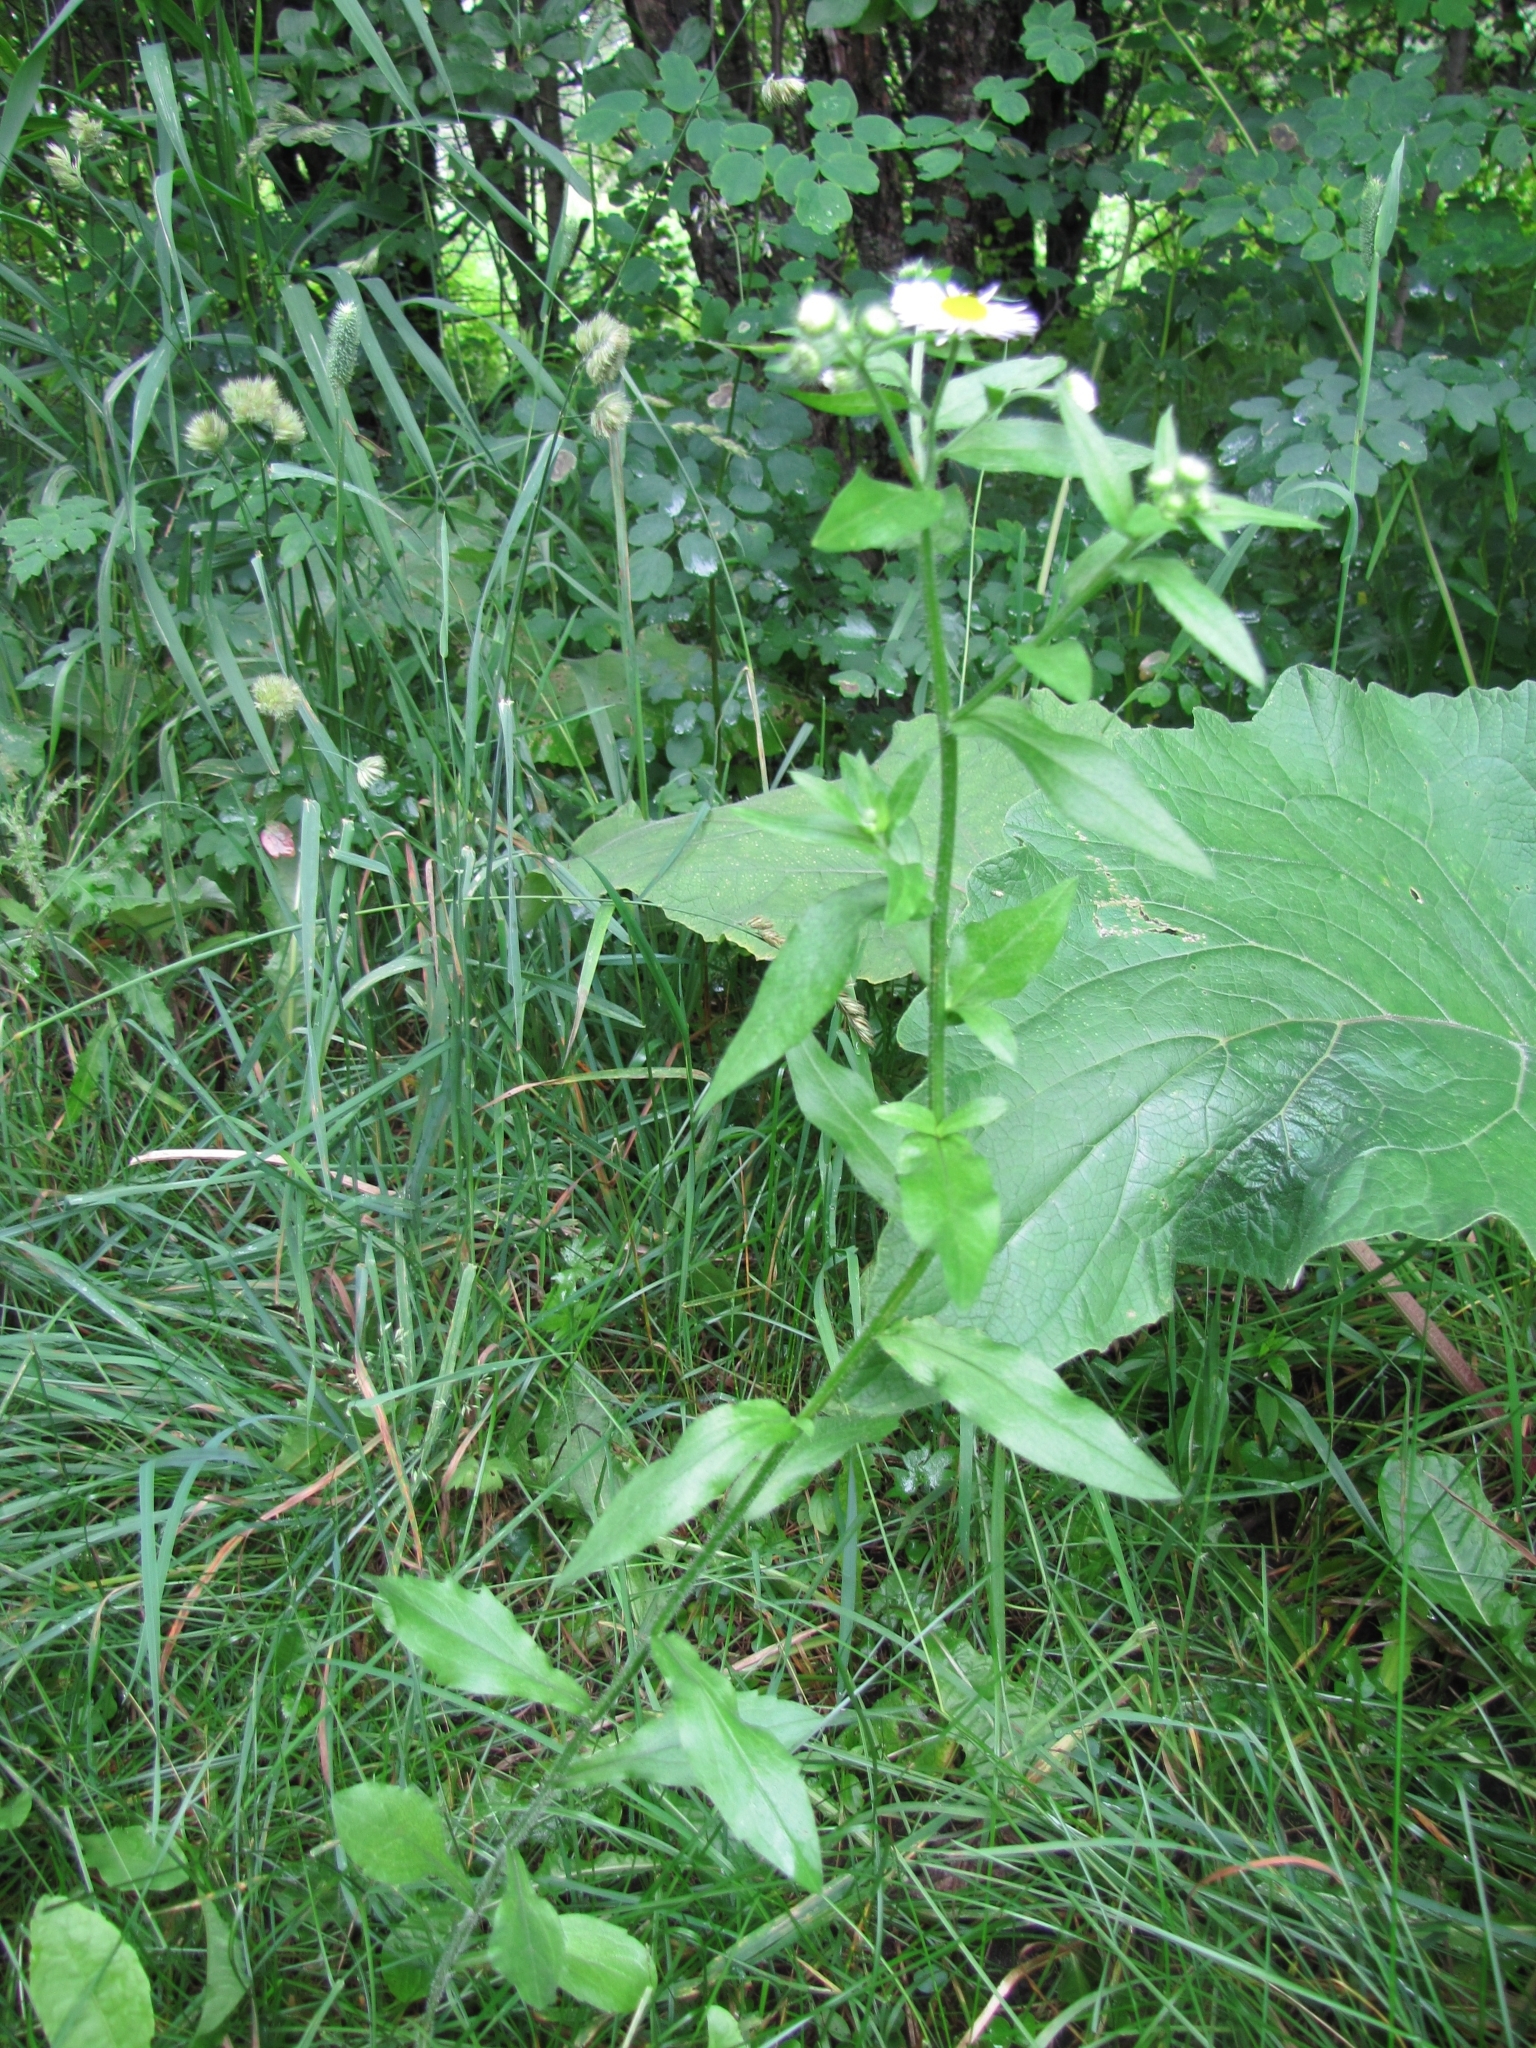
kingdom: Plantae
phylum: Tracheophyta
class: Magnoliopsida
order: Asterales
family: Asteraceae
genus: Erigeron
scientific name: Erigeron annuus
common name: Tall fleabane
